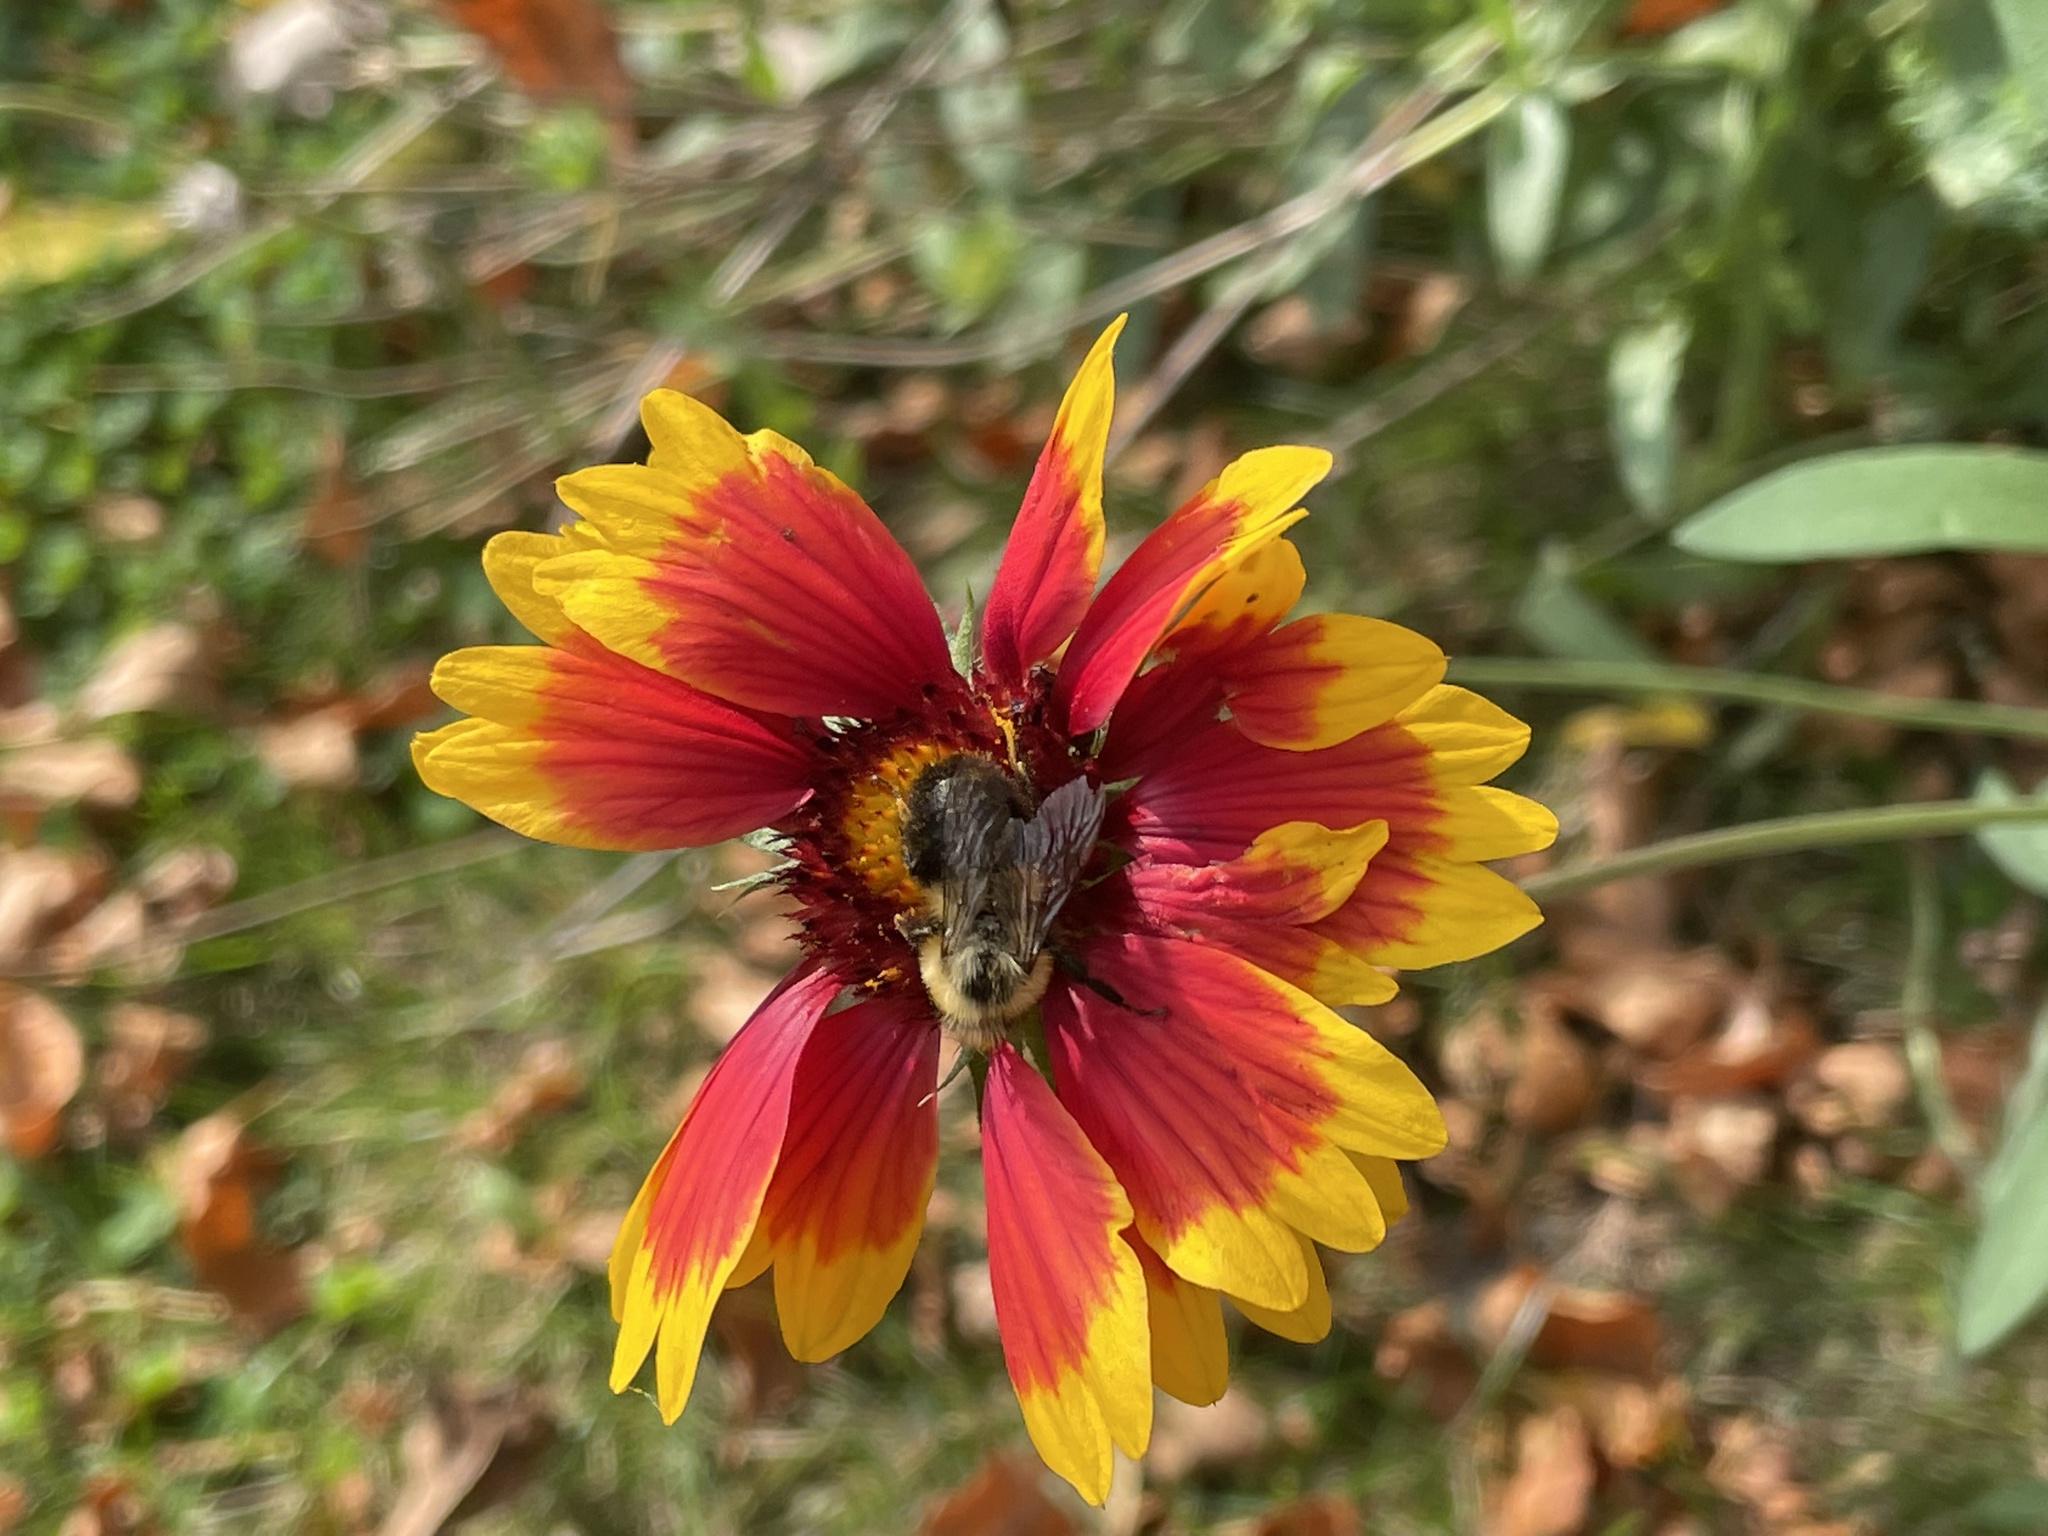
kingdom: Animalia
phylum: Arthropoda
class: Insecta
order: Hymenoptera
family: Apidae
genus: Bombus
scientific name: Bombus impatiens
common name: Common eastern bumble bee
